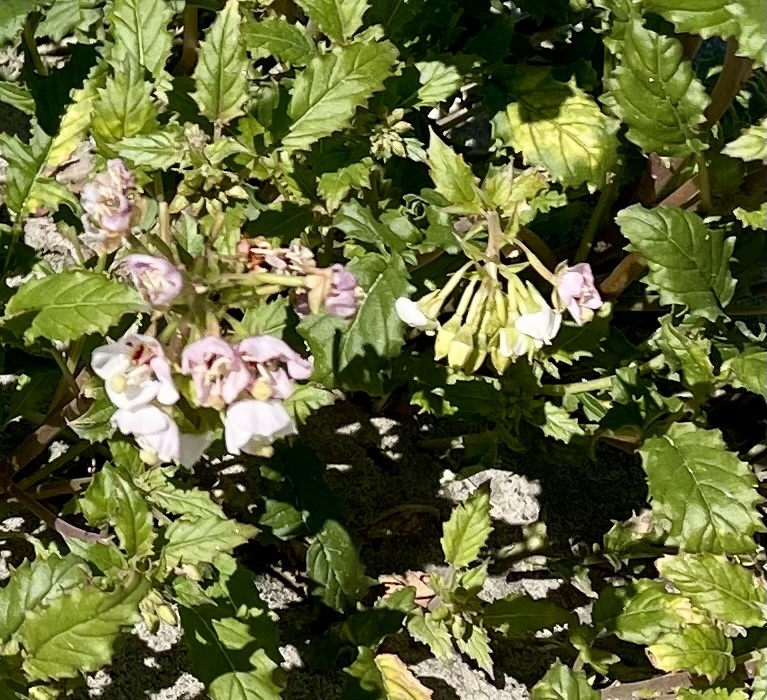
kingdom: Plantae
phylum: Tracheophyta
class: Magnoliopsida
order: Myrtales
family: Onagraceae
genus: Chylismia
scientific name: Chylismia claviformis
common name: Browneyes
